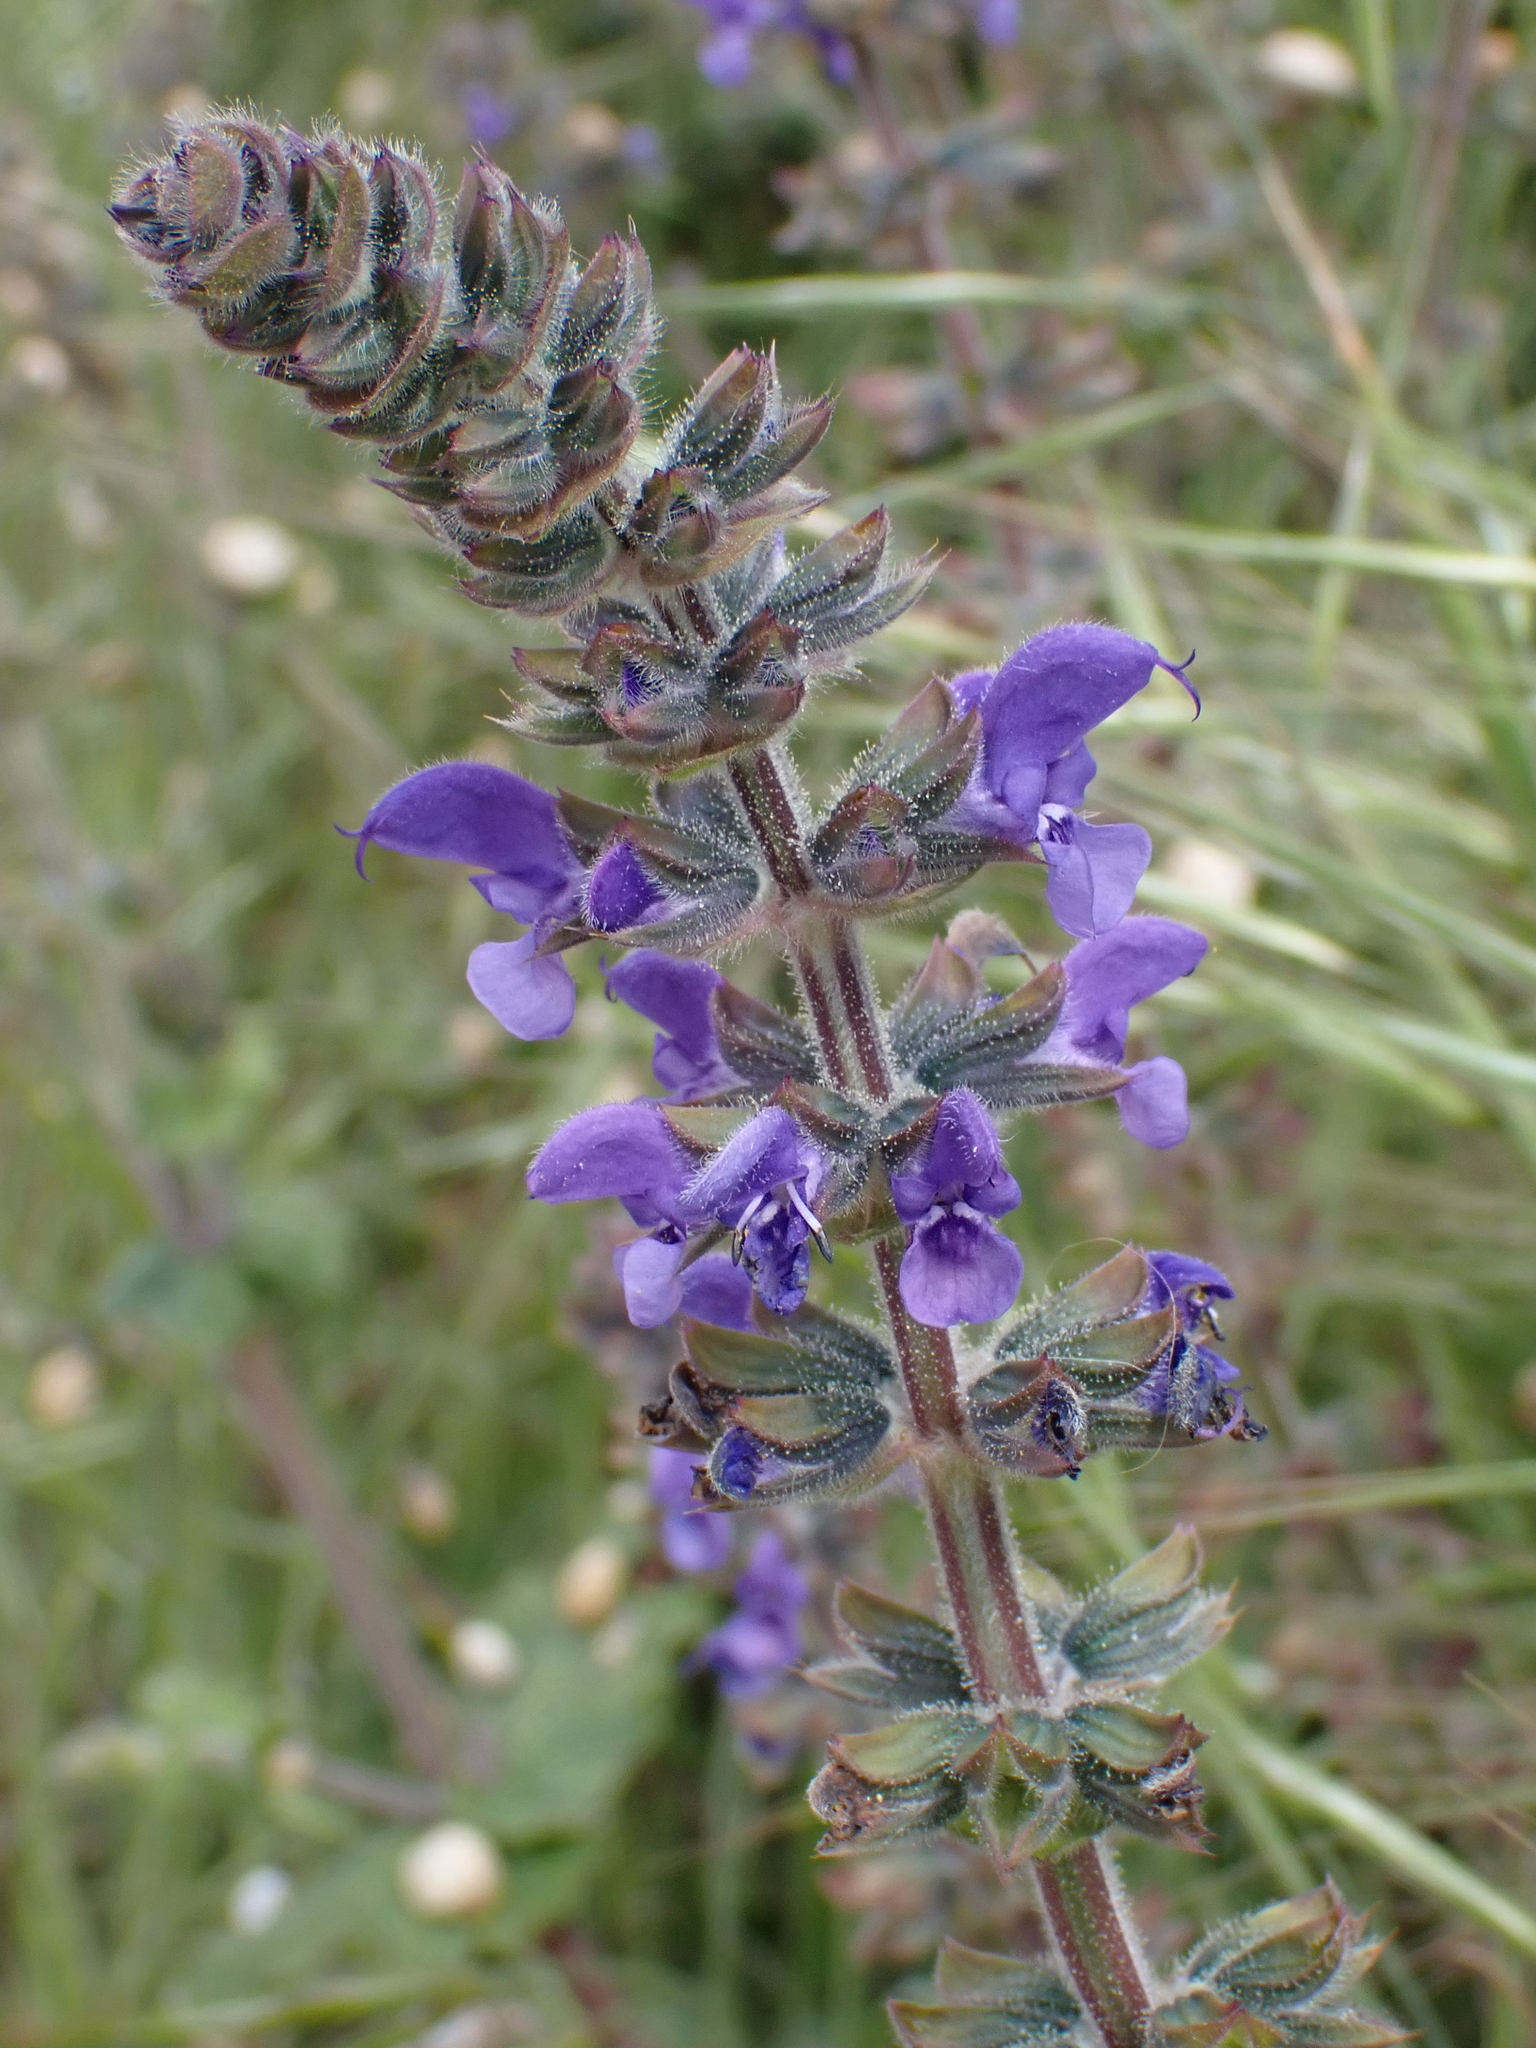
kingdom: Plantae
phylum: Tracheophyta
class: Magnoliopsida
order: Lamiales
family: Lamiaceae
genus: Salvia
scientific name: Salvia verbenaca
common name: Wild clary
